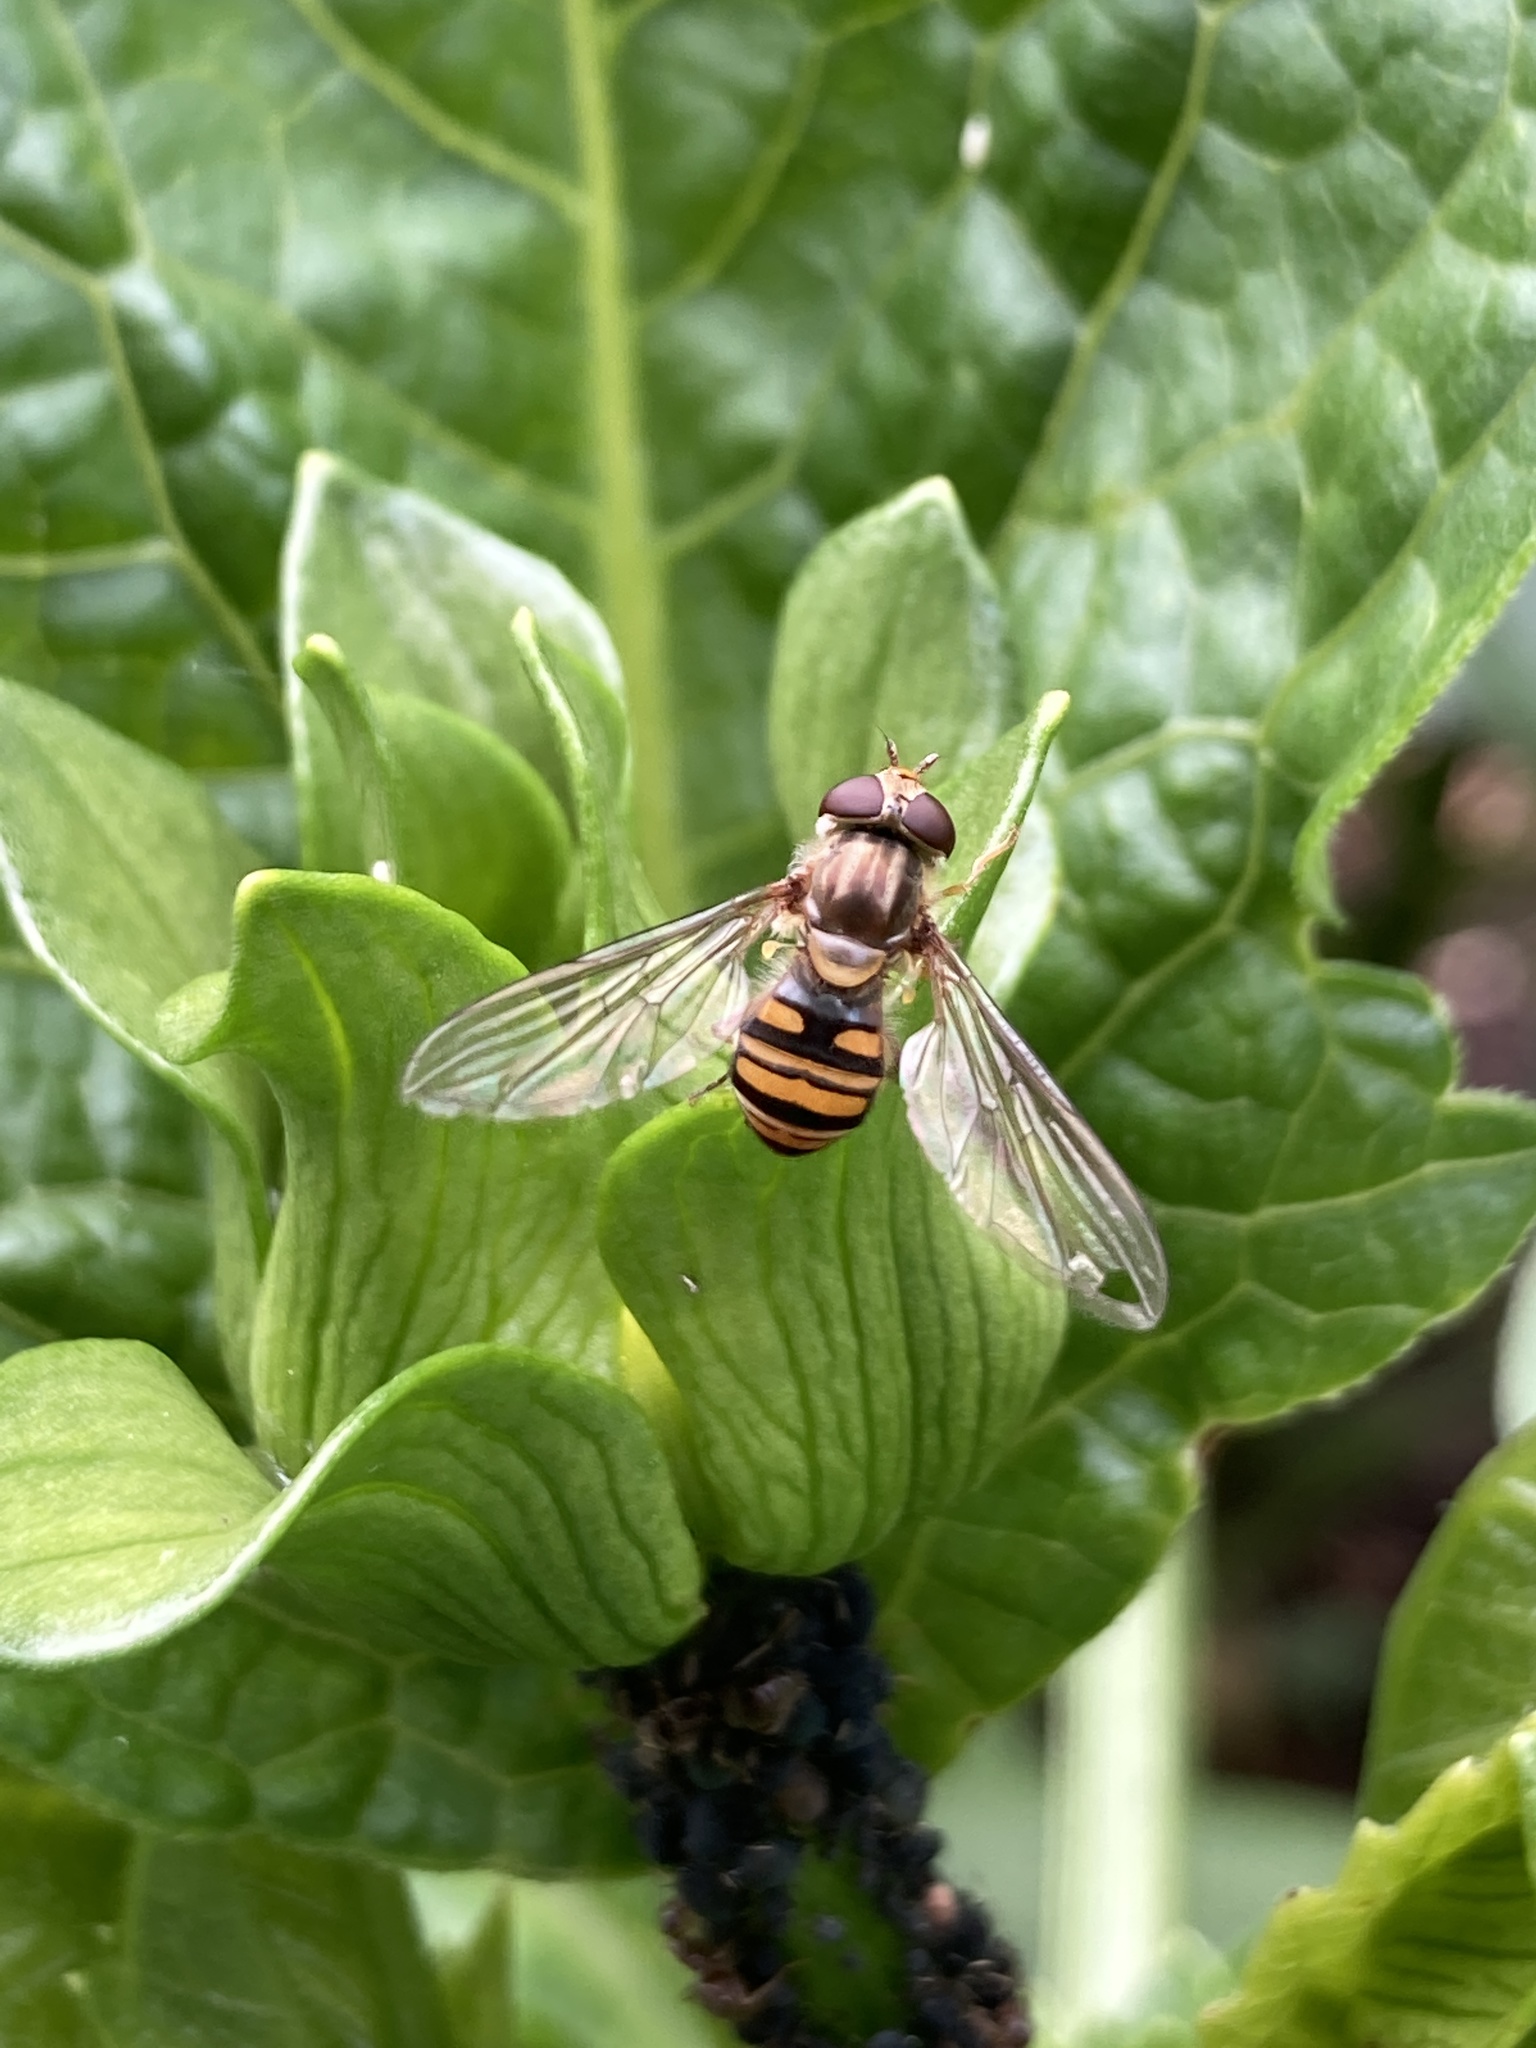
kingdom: Animalia
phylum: Arthropoda
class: Insecta
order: Diptera
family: Syrphidae
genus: Episyrphus
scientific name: Episyrphus balteatus
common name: Marmalade hoverfly
